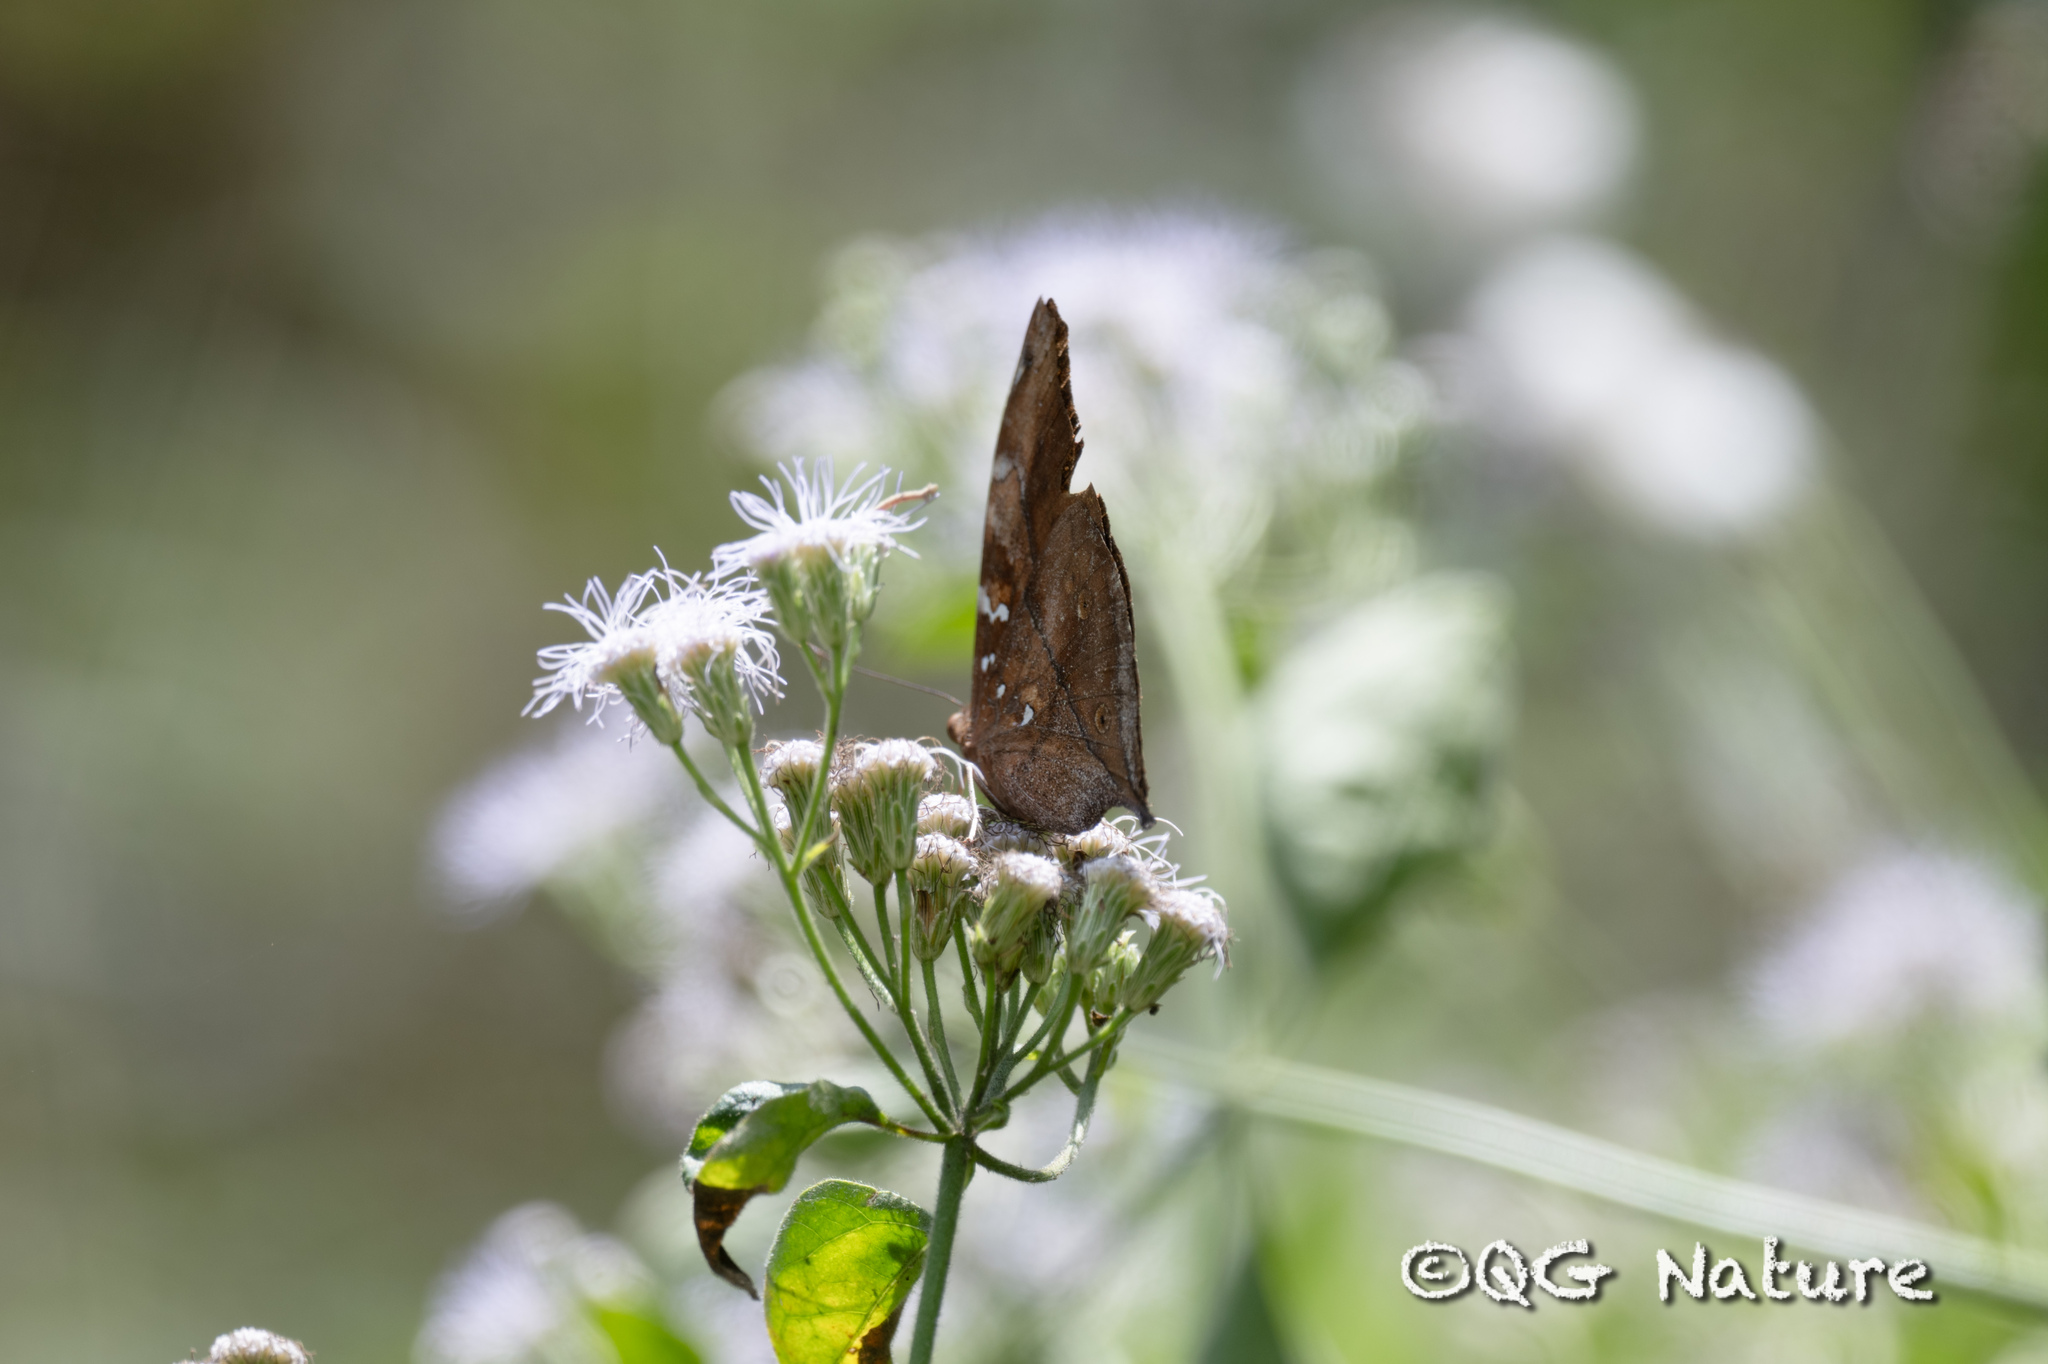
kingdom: Animalia
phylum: Arthropoda
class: Insecta
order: Lepidoptera
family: Nymphalidae
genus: Doleschallia
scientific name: Doleschallia bisaltide
